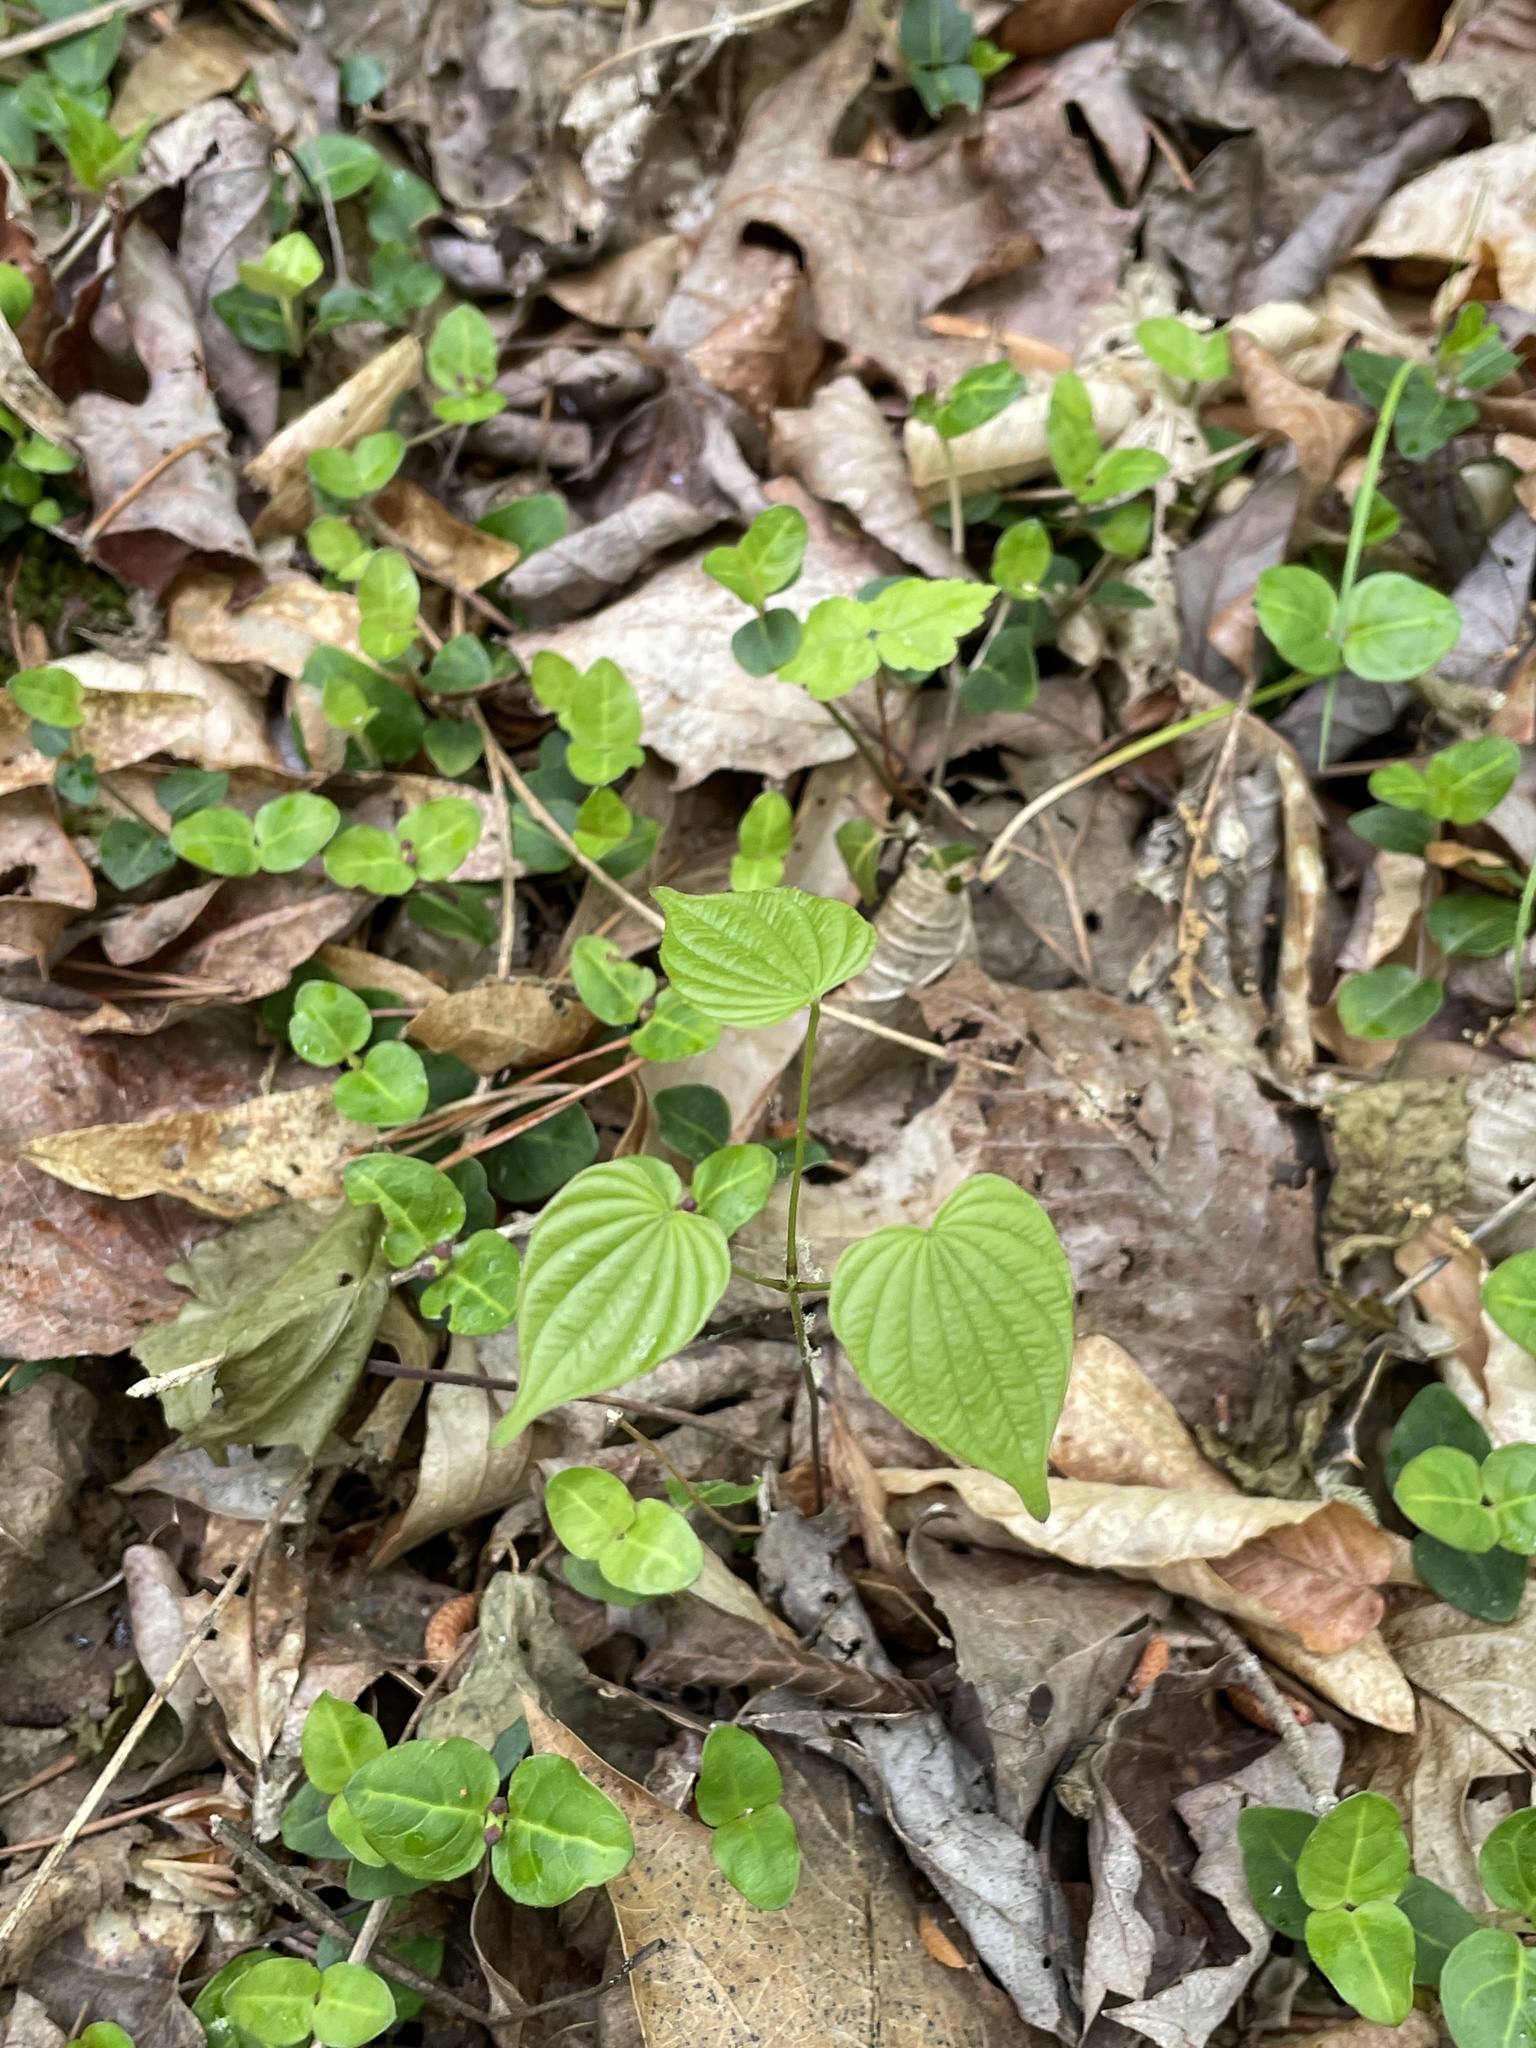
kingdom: Plantae
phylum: Tracheophyta
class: Liliopsida
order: Dioscoreales
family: Dioscoreaceae
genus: Dioscorea
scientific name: Dioscorea villosa
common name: Wild yam
